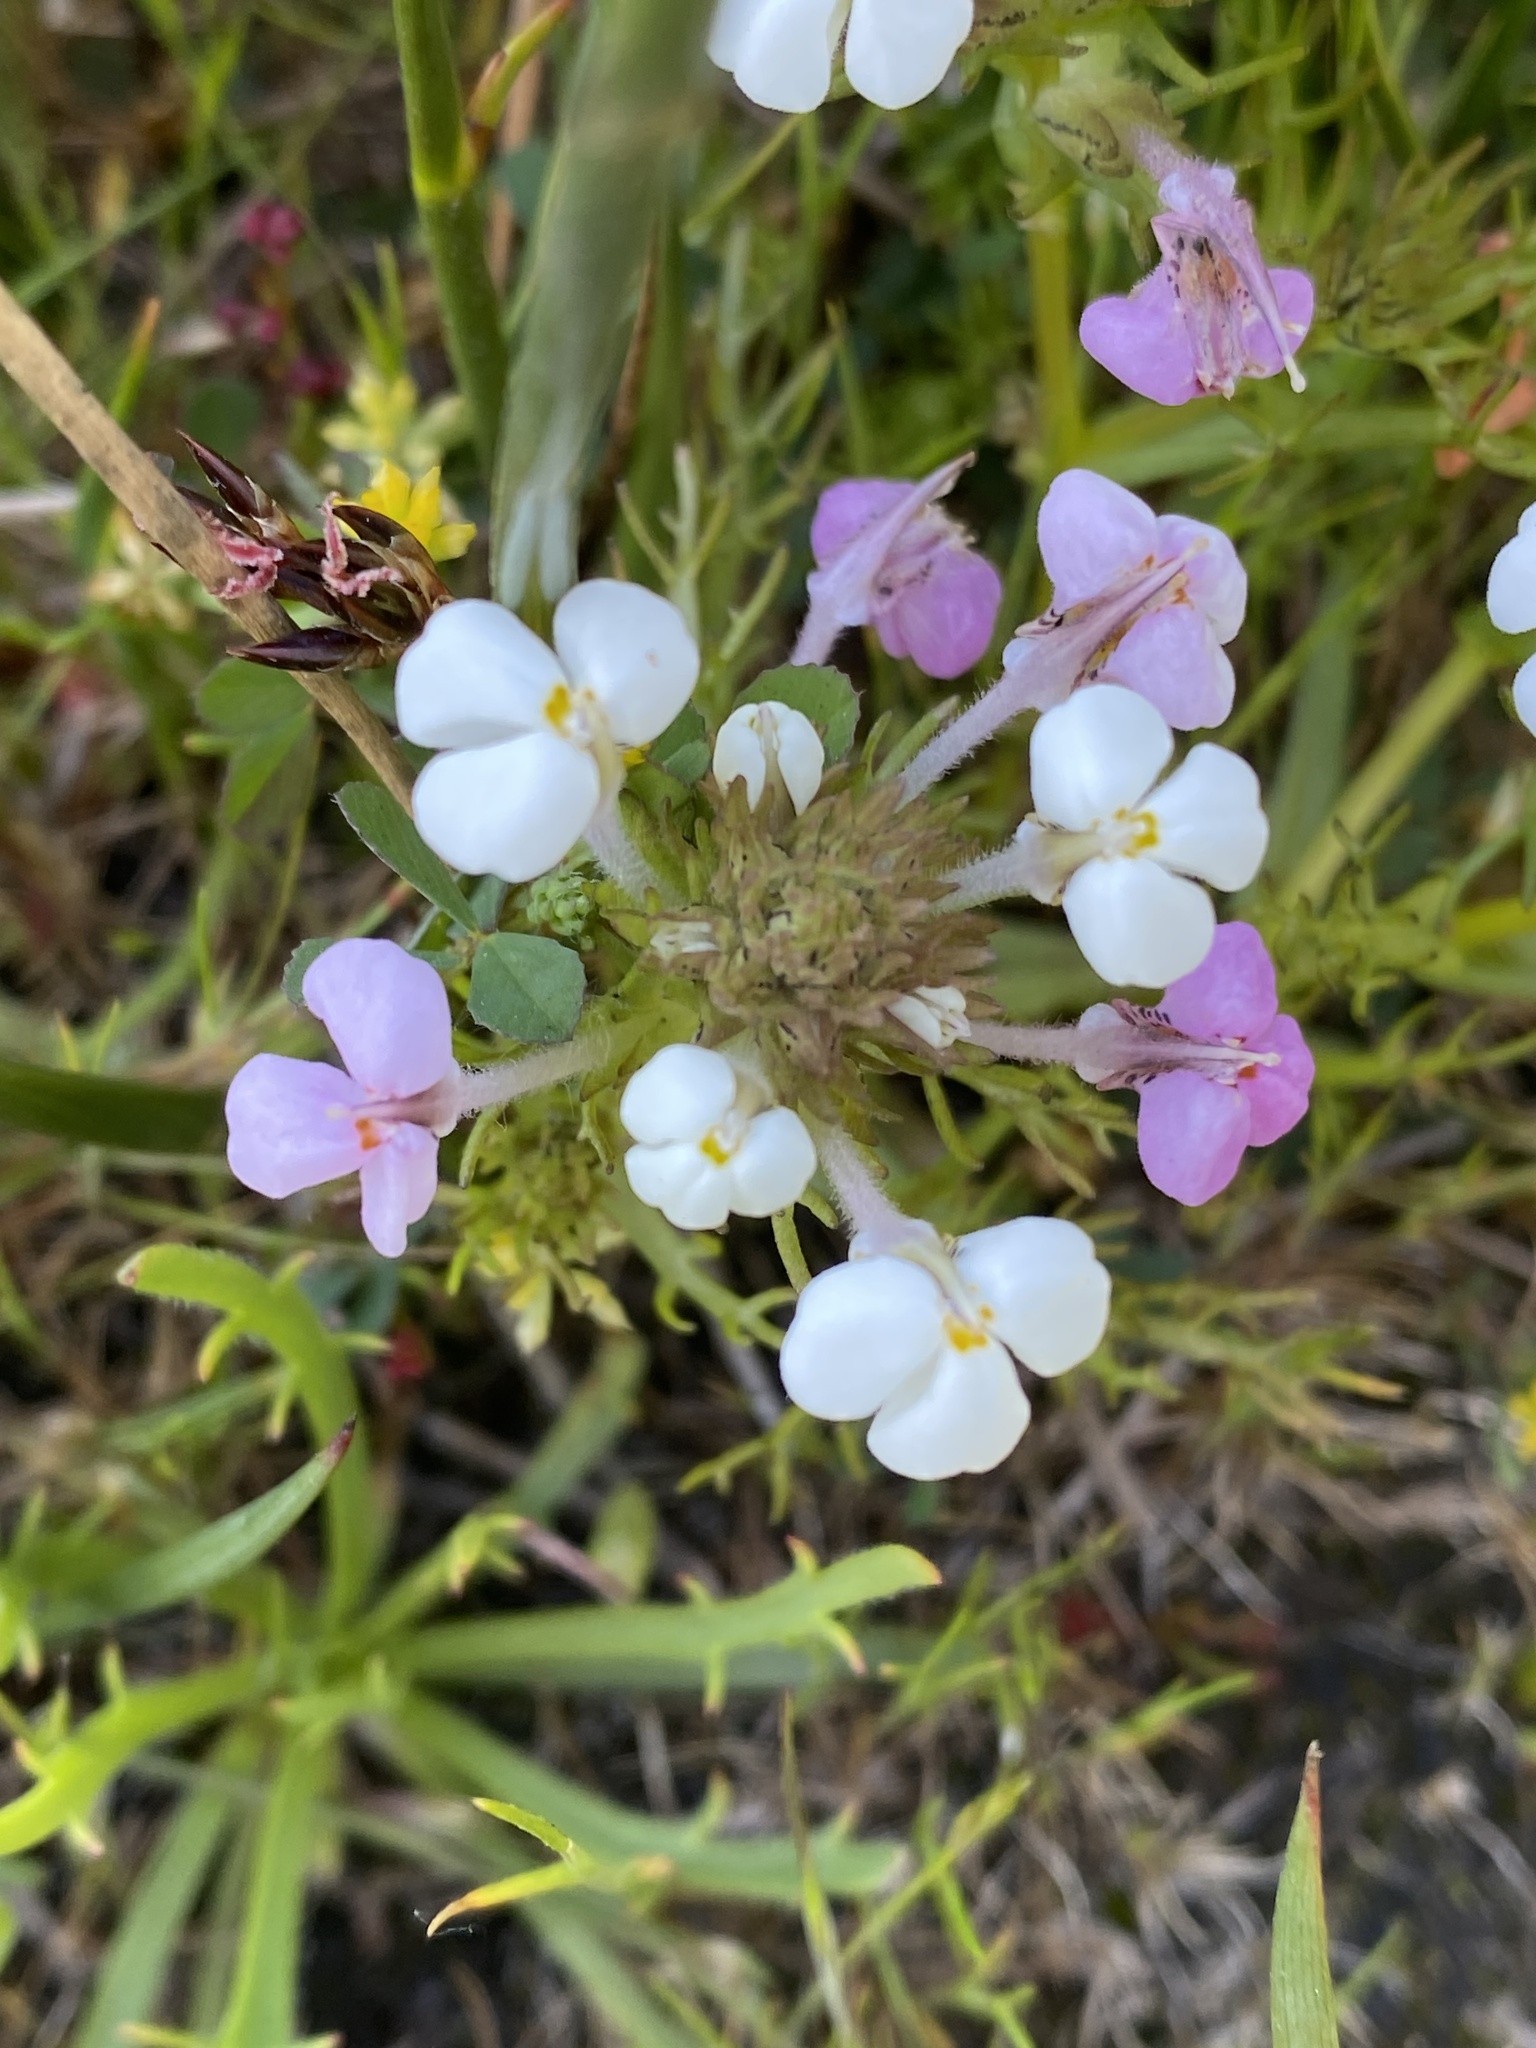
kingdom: Plantae
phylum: Tracheophyta
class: Magnoliopsida
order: Lamiales
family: Orobanchaceae
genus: Triphysaria
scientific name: Triphysaria versicolor
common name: Bearded false owl-clover
